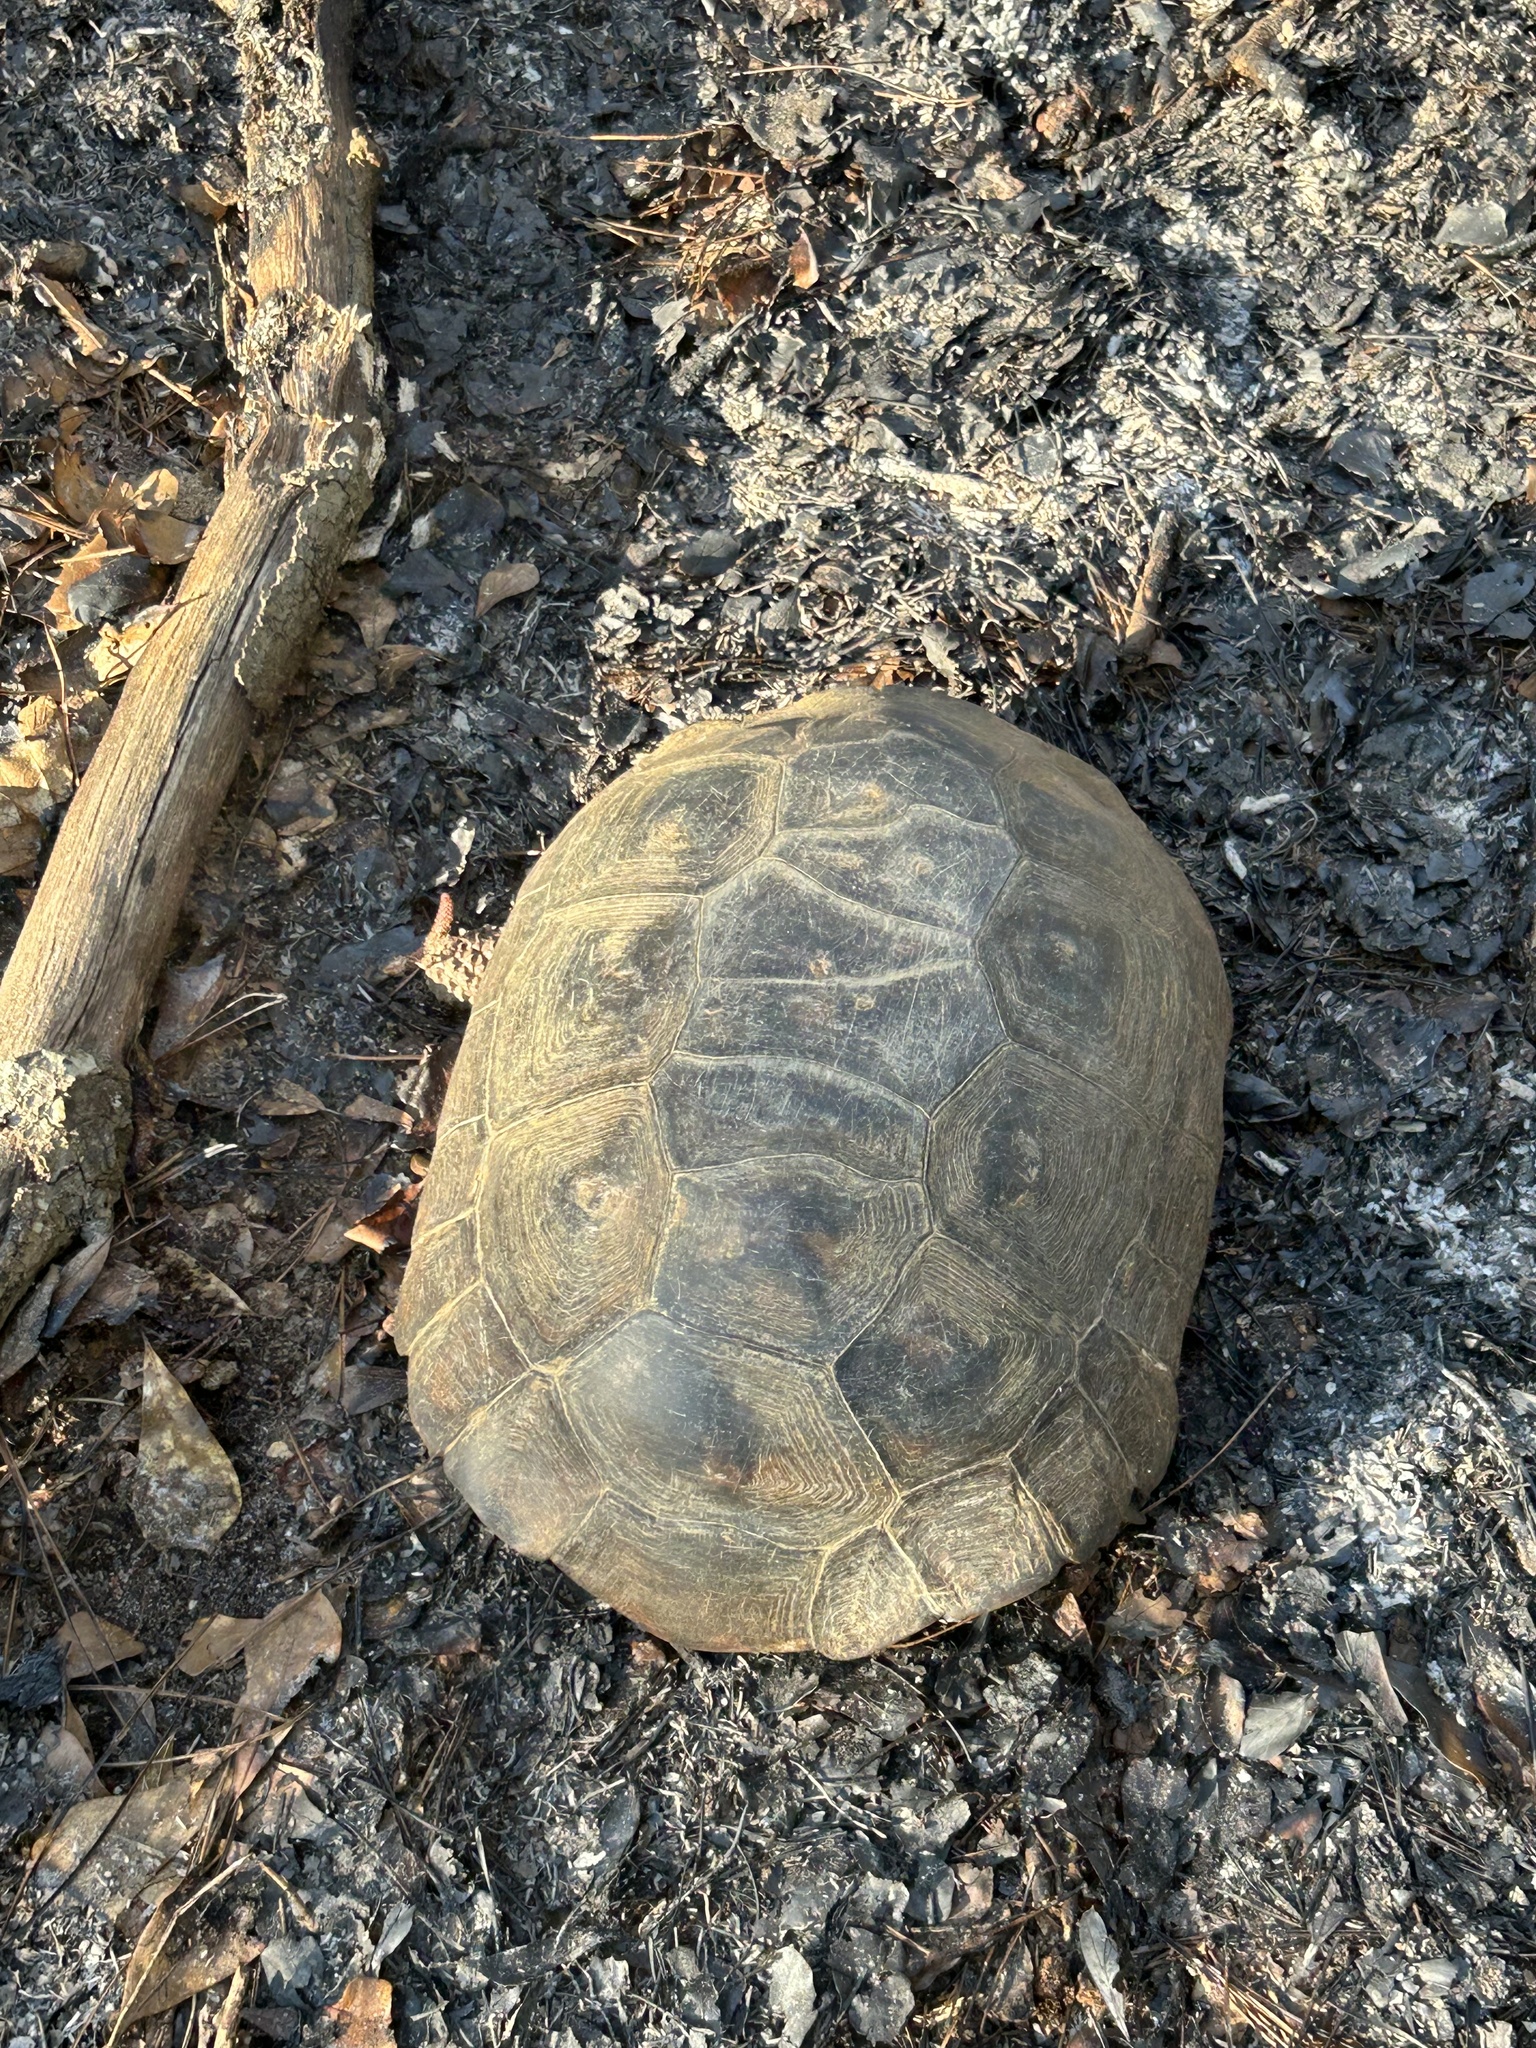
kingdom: Animalia
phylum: Chordata
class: Testudines
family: Testudinidae
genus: Gopherus
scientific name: Gopherus polyphemus
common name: Florida gopher tortoise
